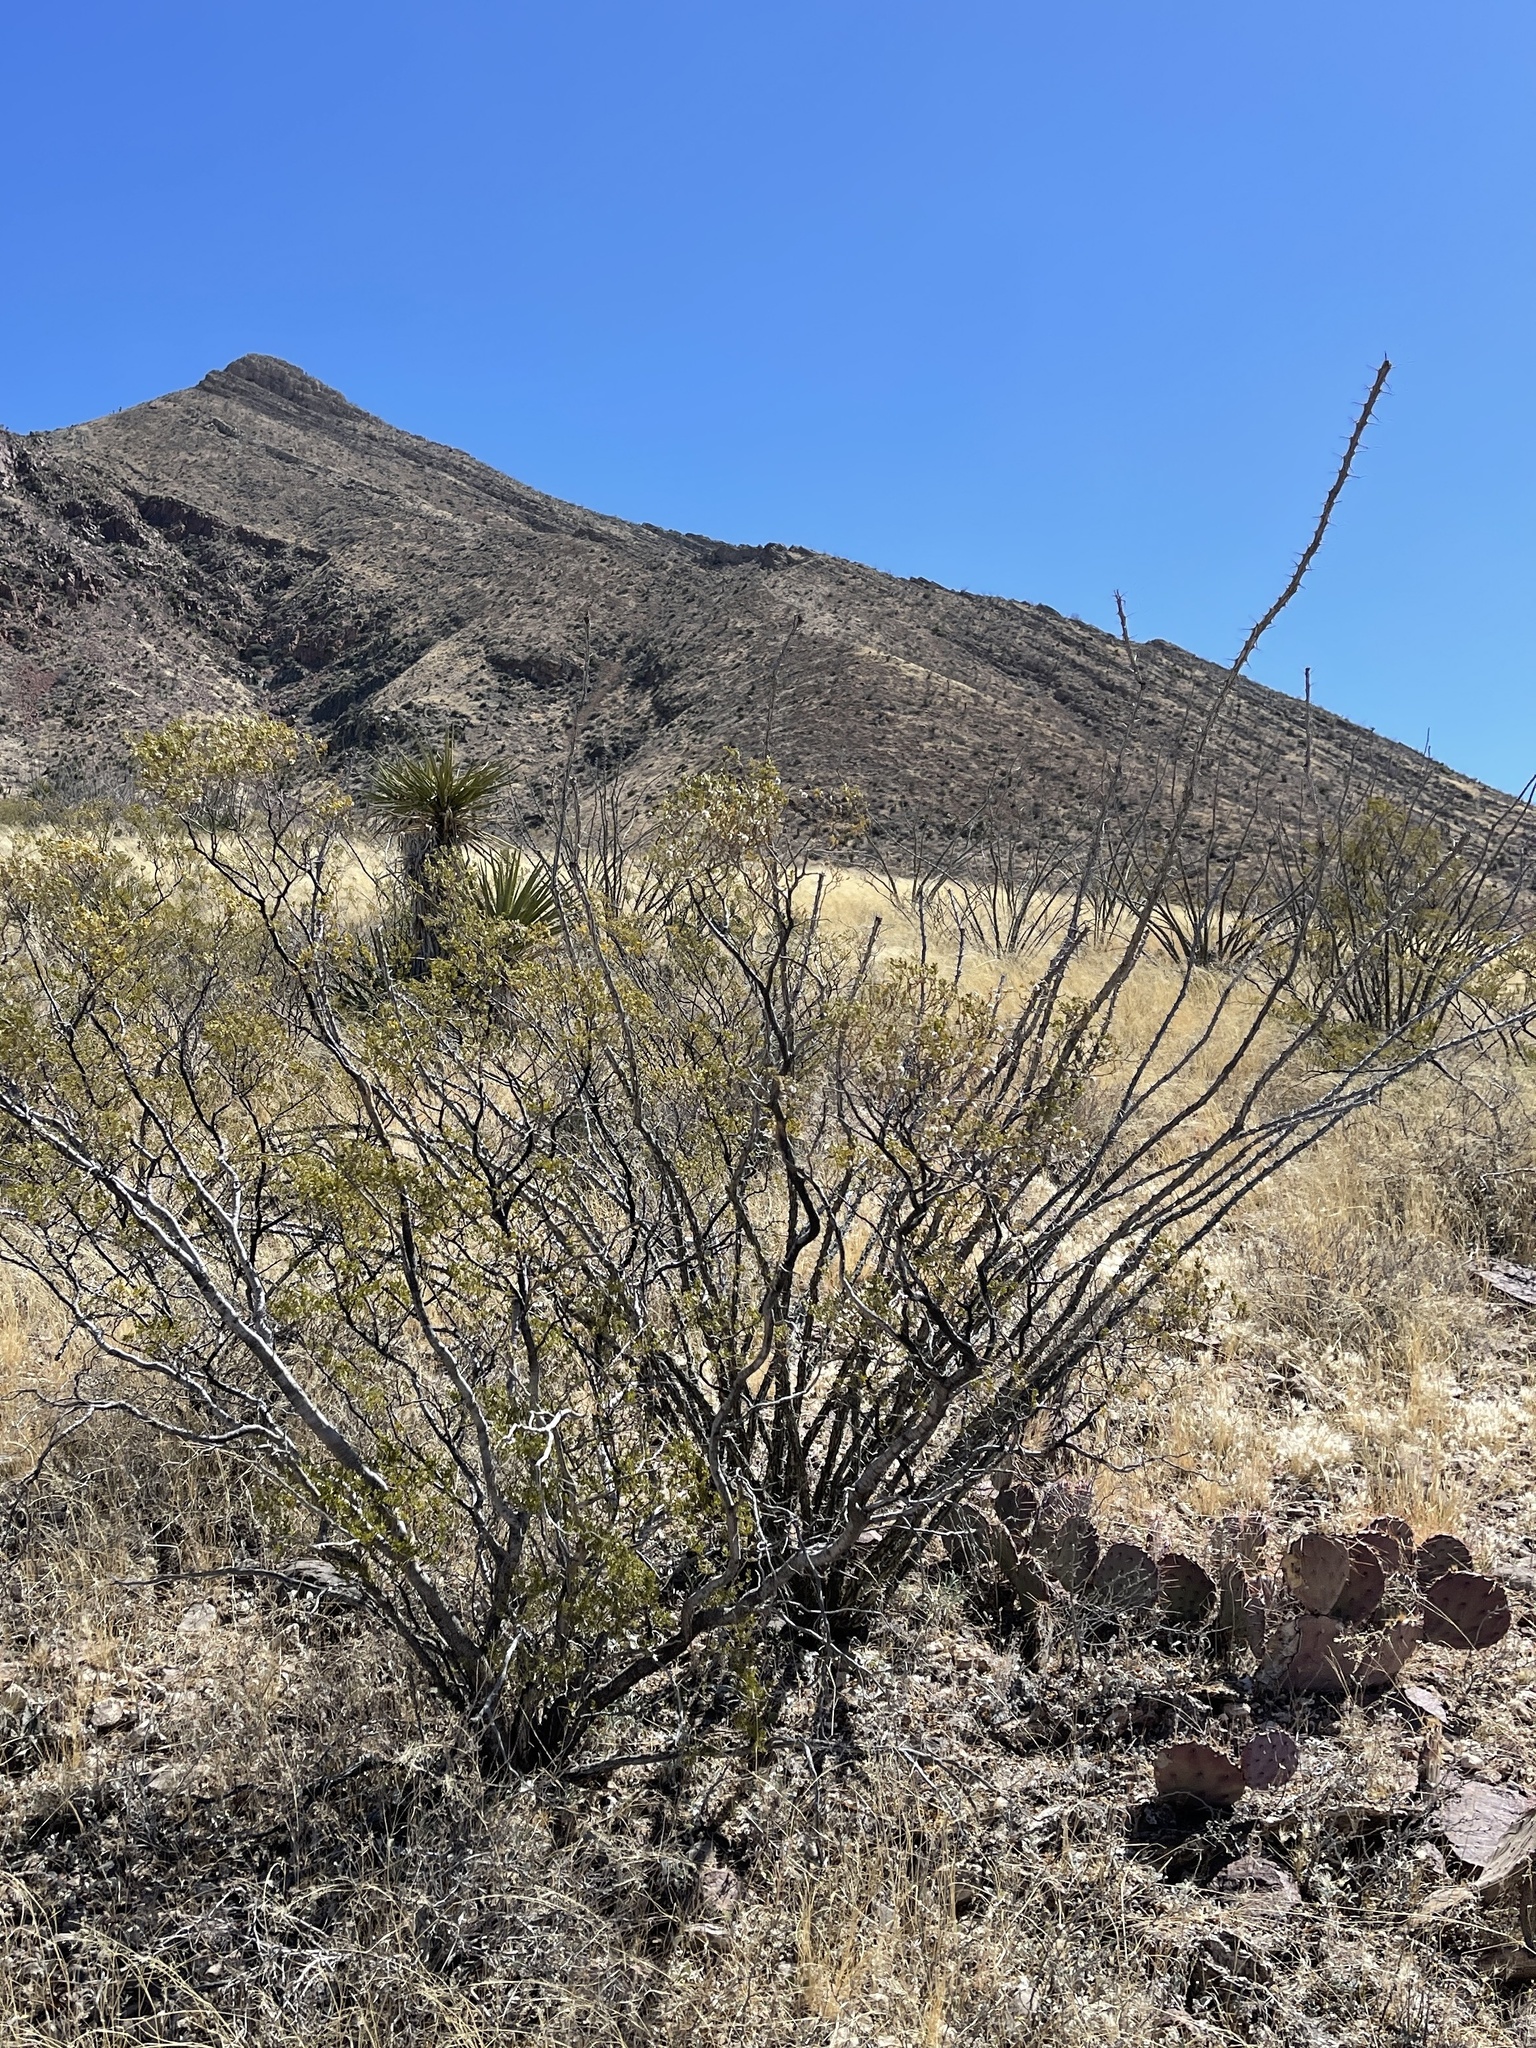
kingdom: Plantae
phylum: Tracheophyta
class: Magnoliopsida
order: Ericales
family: Fouquieriaceae
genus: Fouquieria
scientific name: Fouquieria splendens
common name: Vine-cactus
